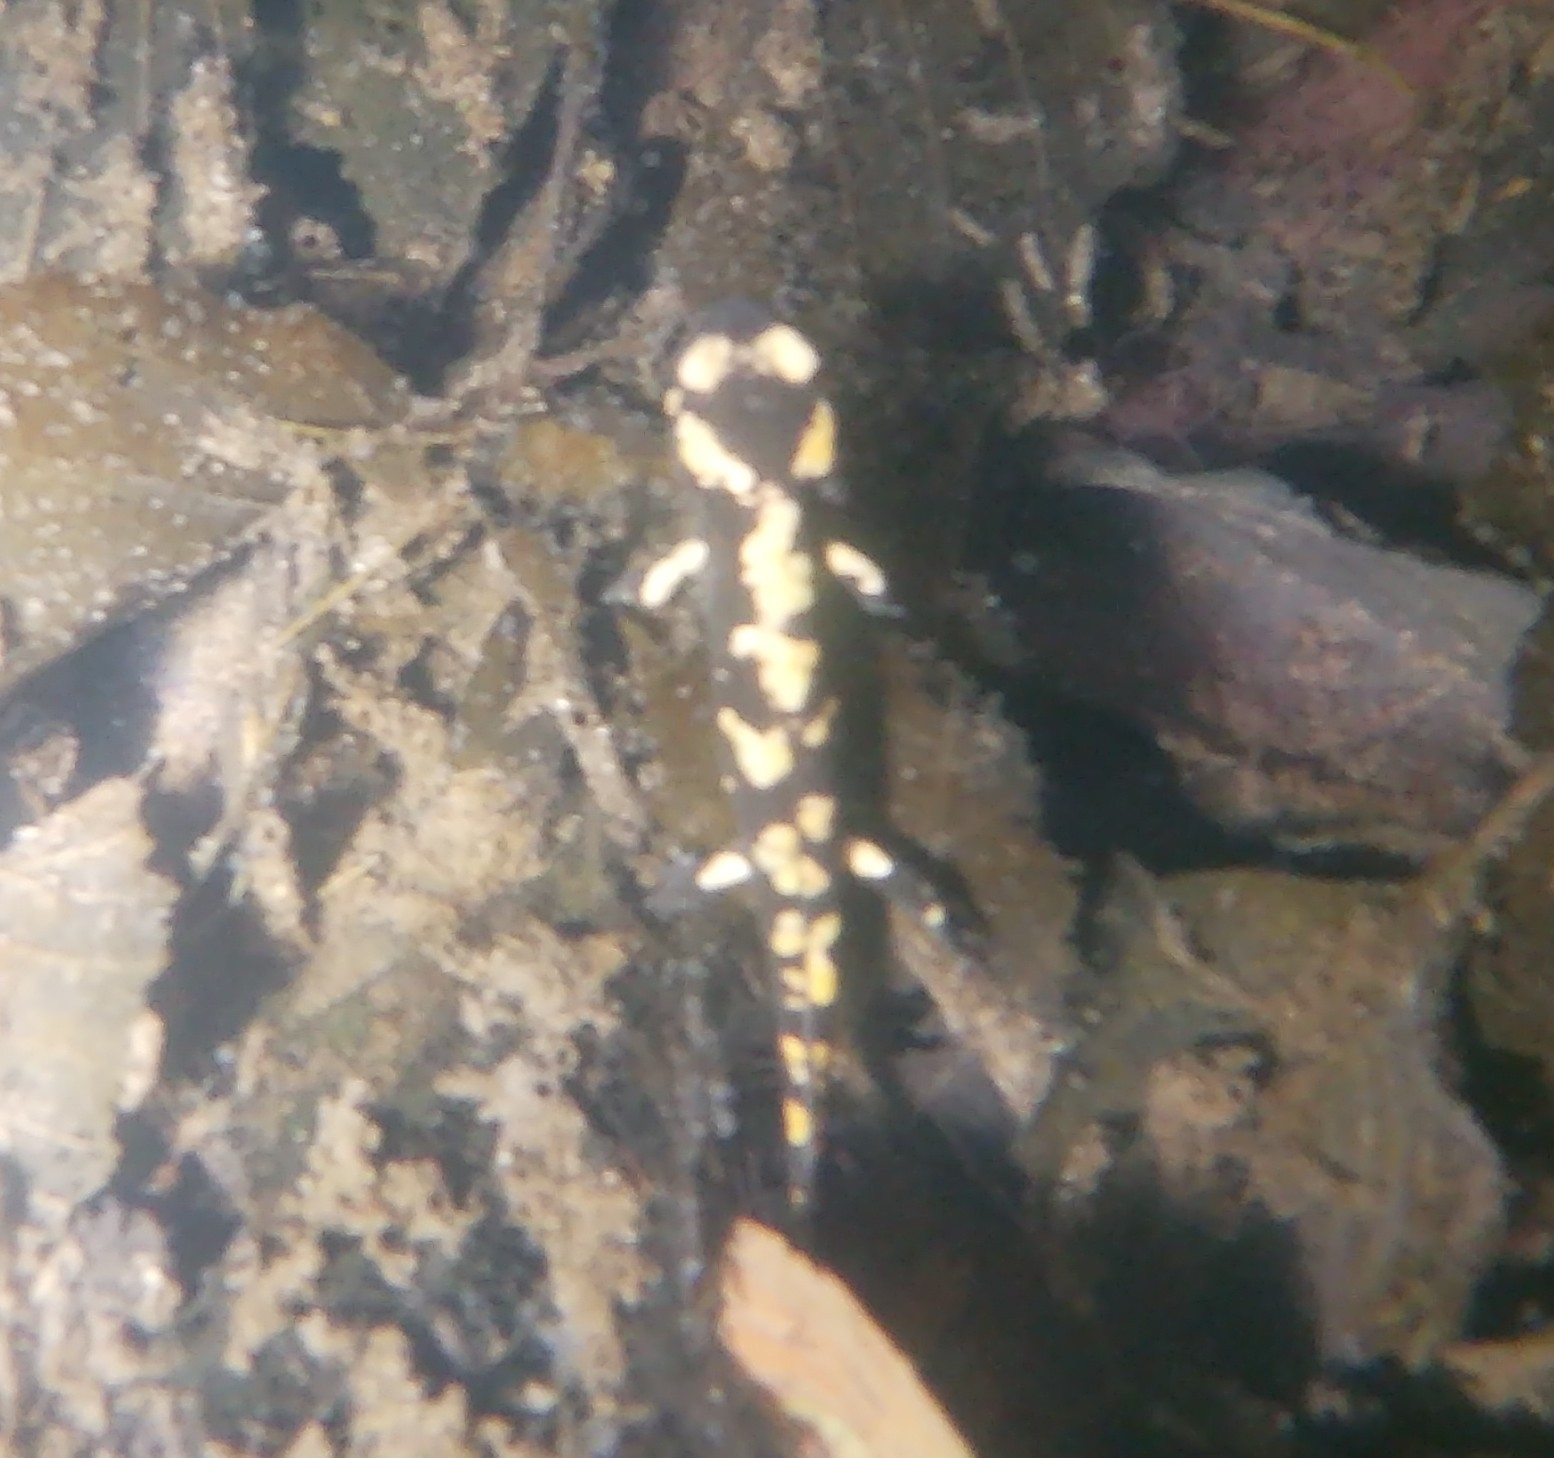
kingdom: Animalia
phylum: Chordata
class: Amphibia
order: Caudata
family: Salamandridae
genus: Salamandra
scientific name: Salamandra salamandra
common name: Fire salamander
